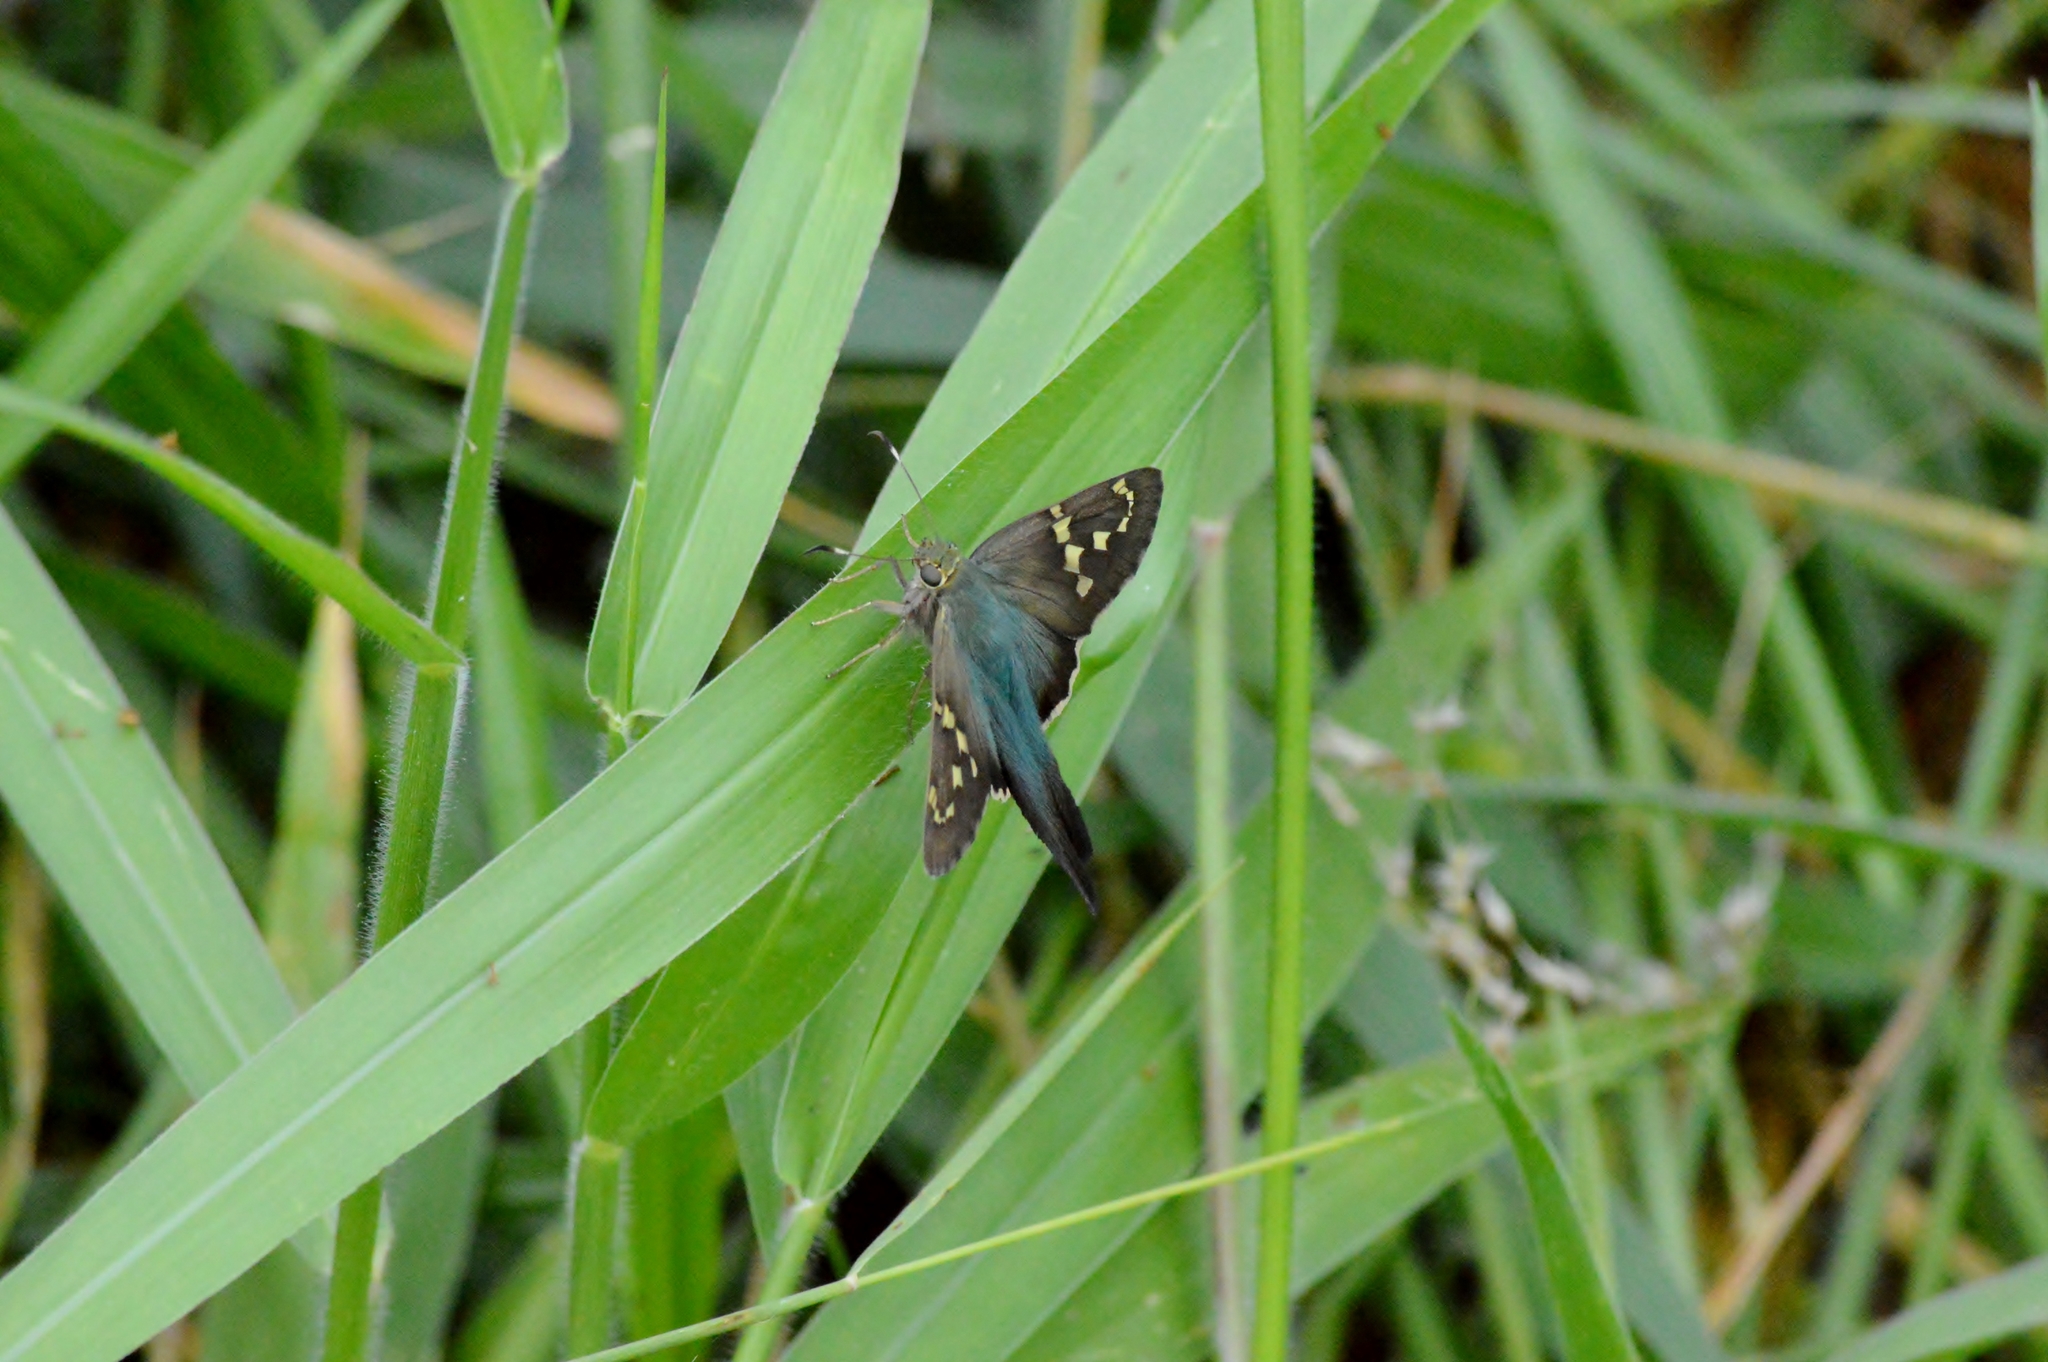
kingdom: Animalia
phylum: Arthropoda
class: Insecta
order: Lepidoptera
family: Hesperiidae
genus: Urbanus
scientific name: Urbanus proteus
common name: Long-tailed skipper
